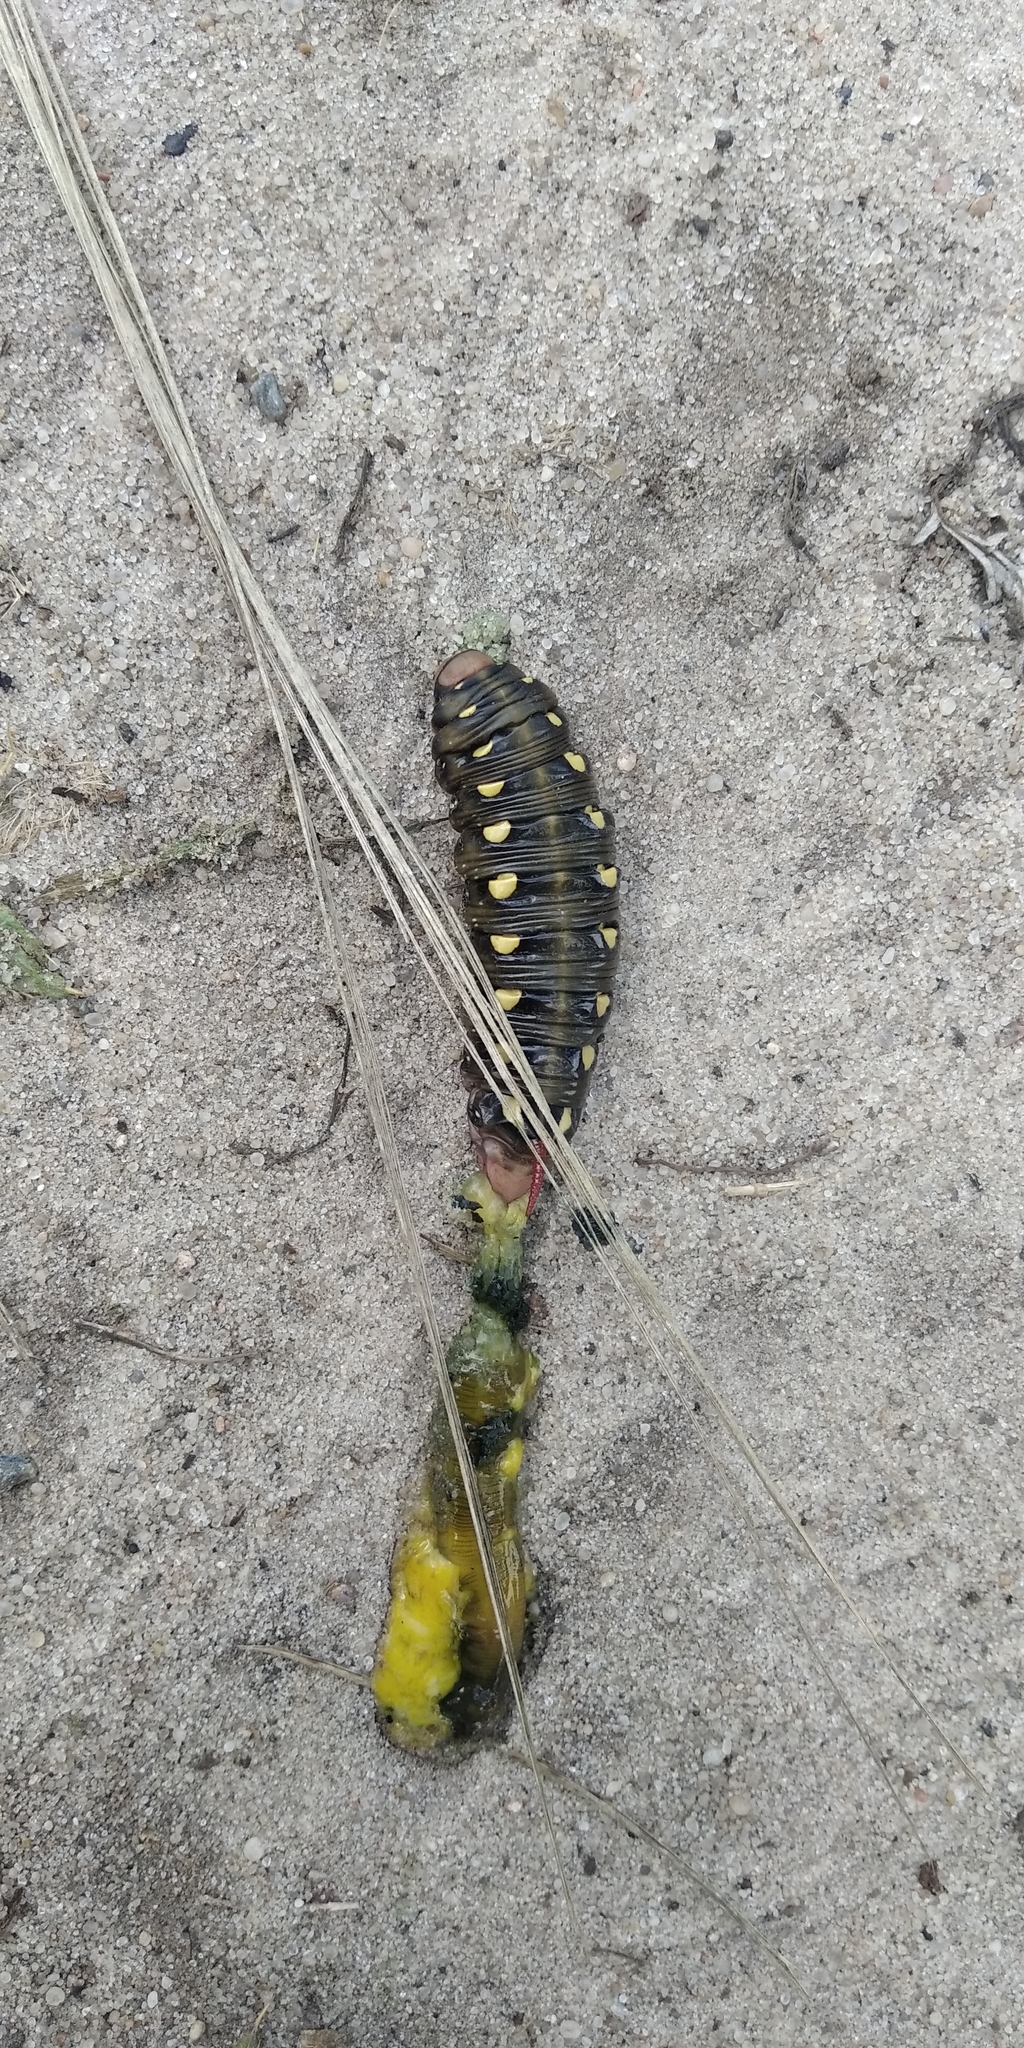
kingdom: Animalia
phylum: Arthropoda
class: Insecta
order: Lepidoptera
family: Sphingidae
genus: Hyles
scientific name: Hyles gallii
